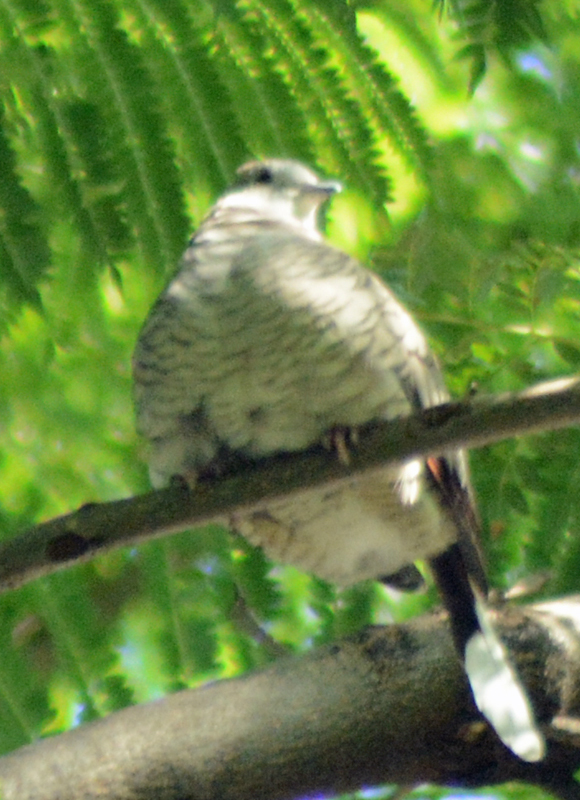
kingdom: Animalia
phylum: Chordata
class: Aves
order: Columbiformes
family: Columbidae
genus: Columbina
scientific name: Columbina inca
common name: Inca dove
